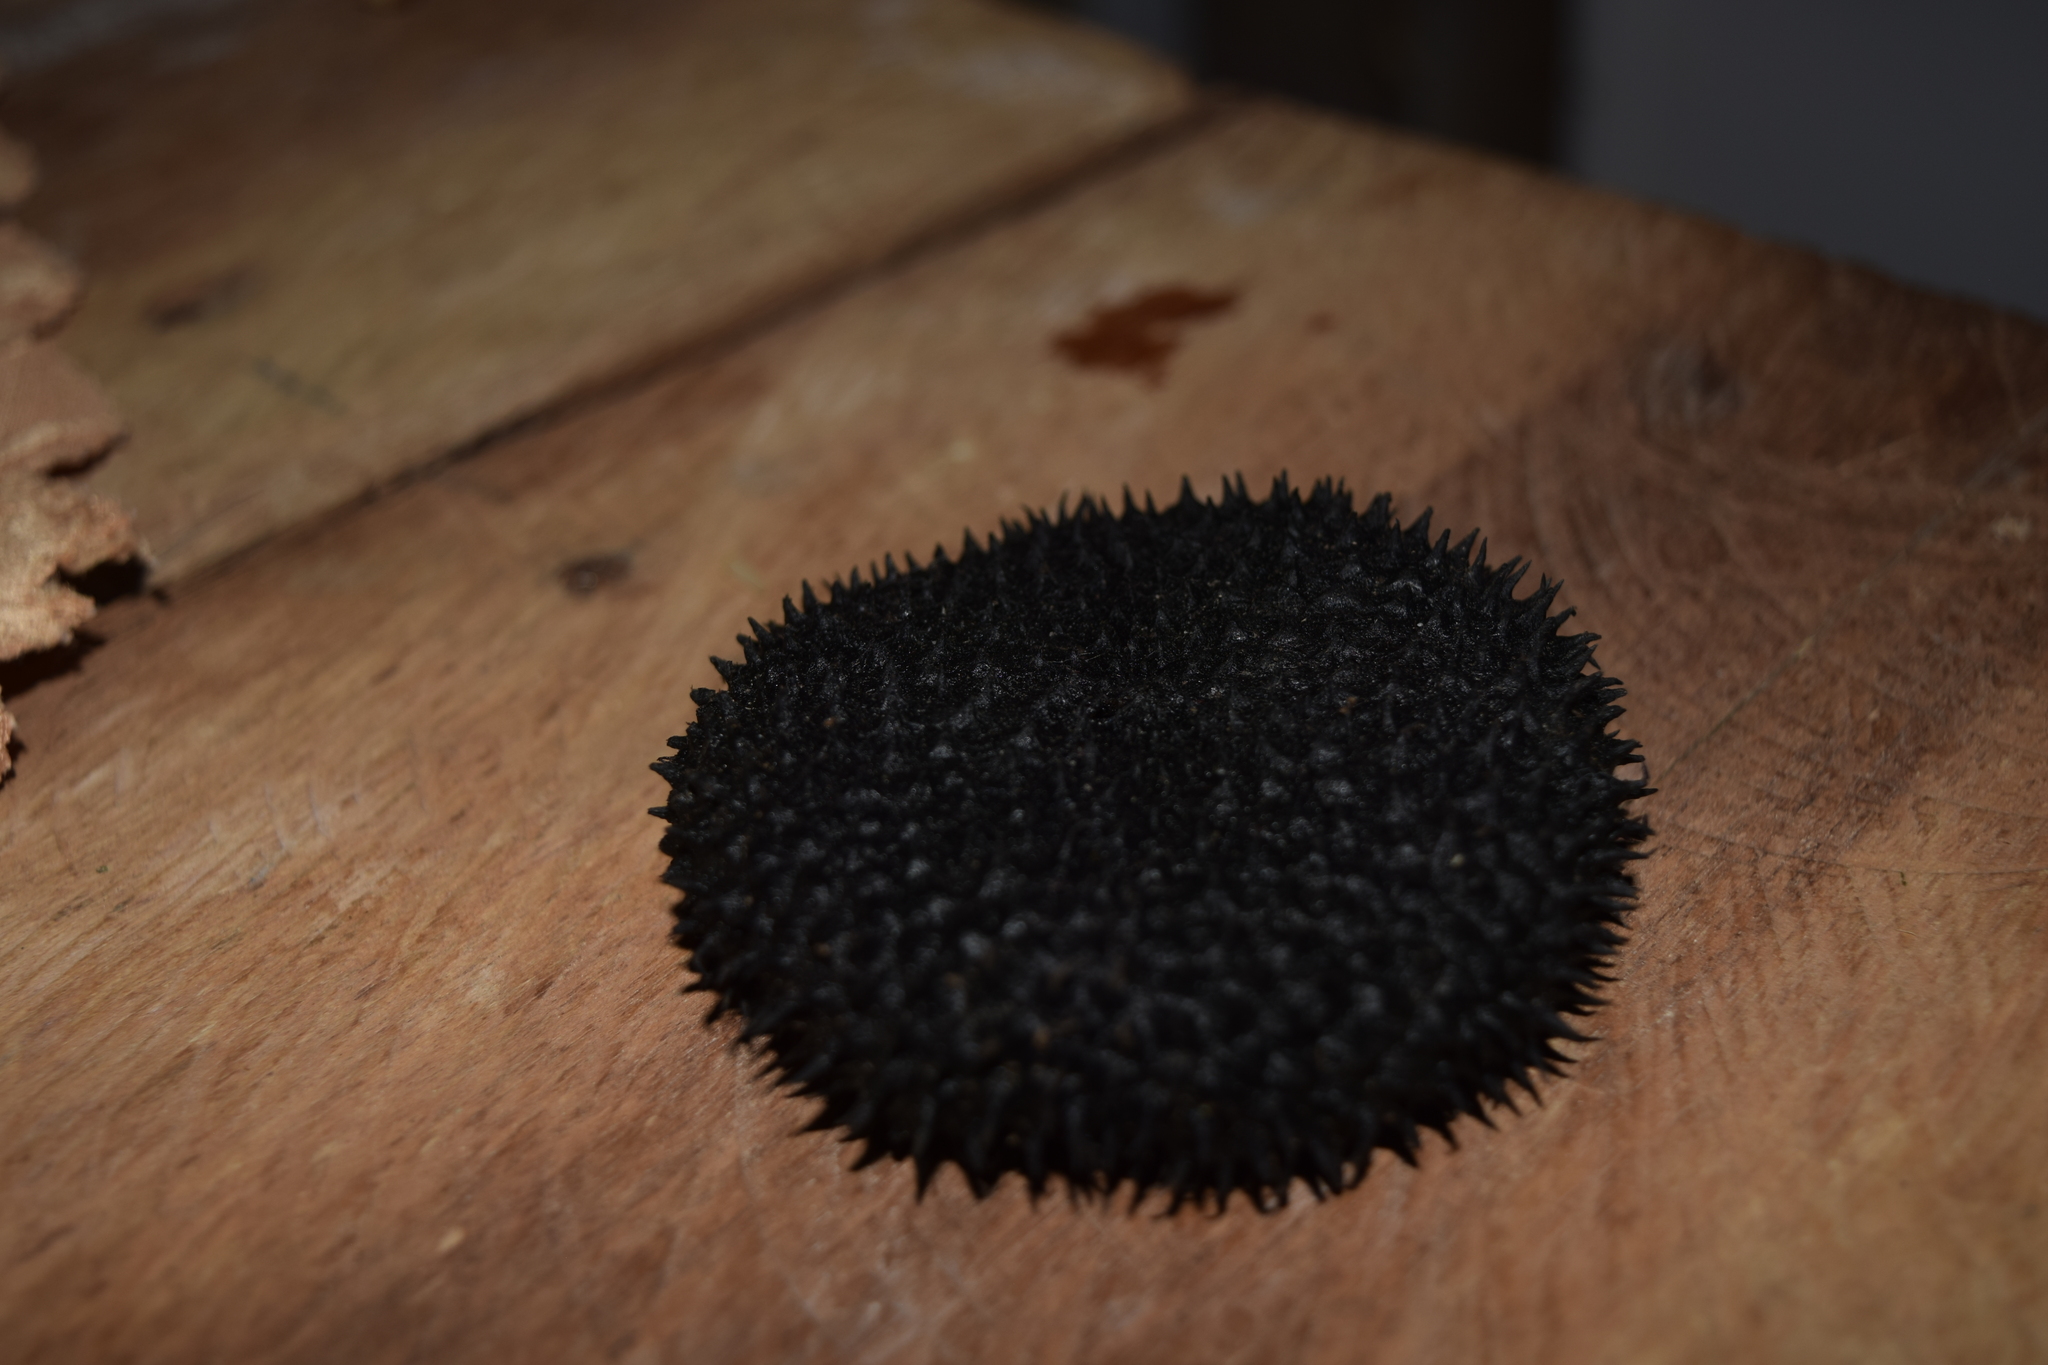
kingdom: Plantae
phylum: Tracheophyta
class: Magnoliopsida
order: Malvales
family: Malvaceae
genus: Apeiba
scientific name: Apeiba membranacea
